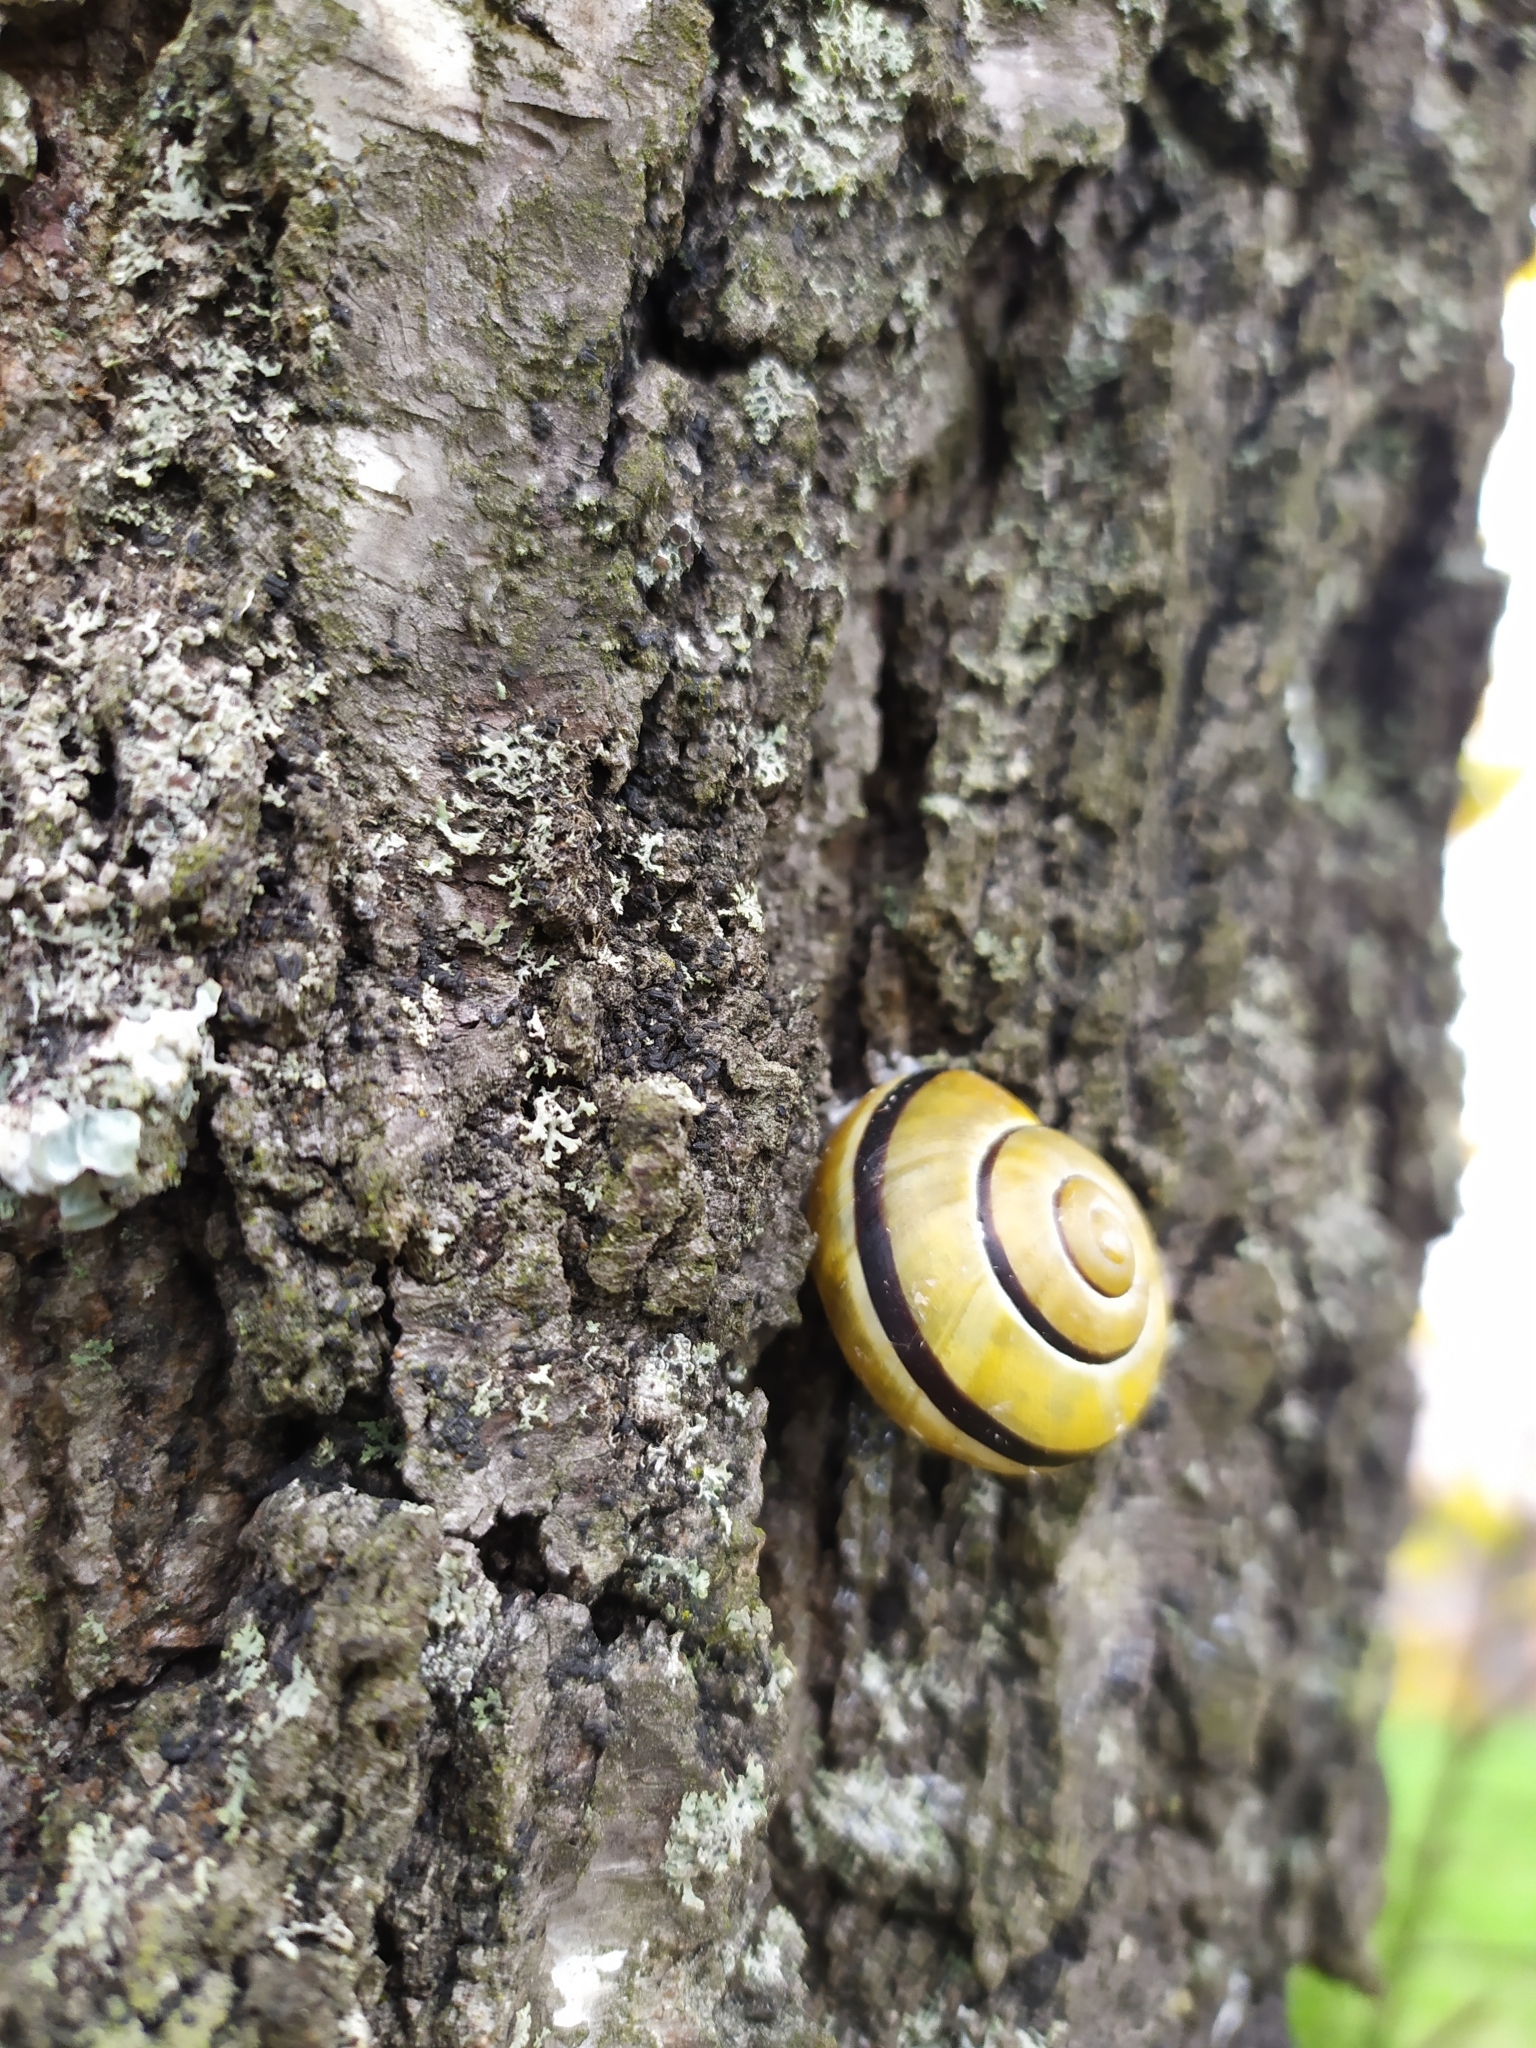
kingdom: Animalia
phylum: Mollusca
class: Gastropoda
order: Stylommatophora
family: Helicidae
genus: Cepaea
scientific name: Cepaea nemoralis
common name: Grovesnail
